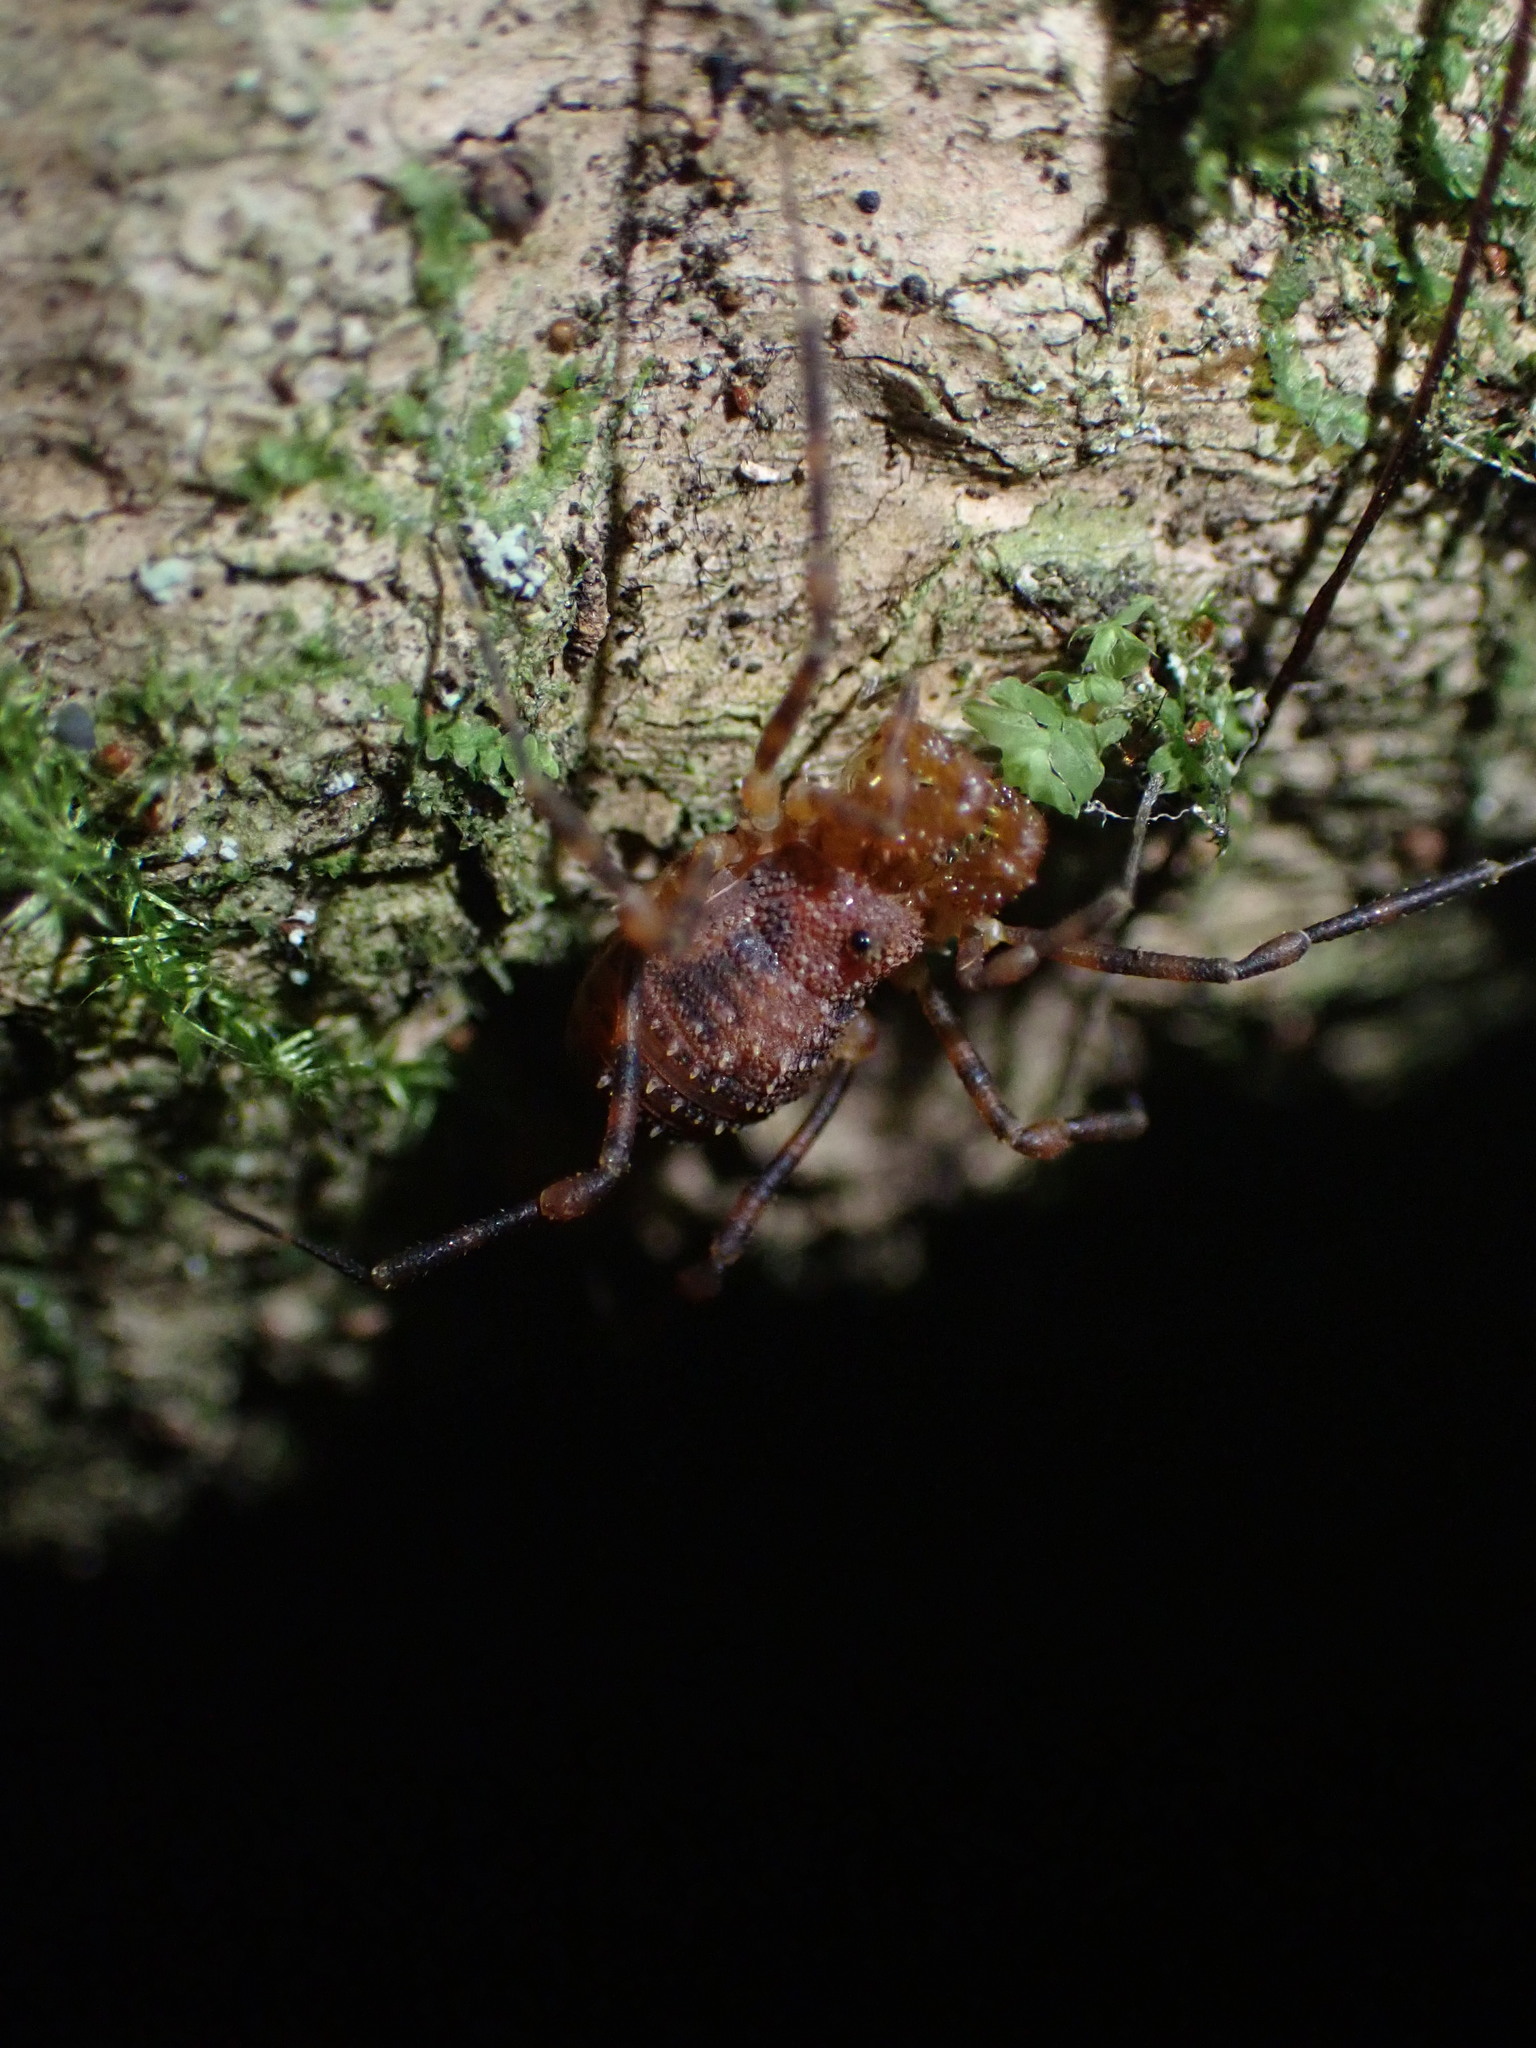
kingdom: Animalia
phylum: Arthropoda
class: Arachnida
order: Opiliones
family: Triaenonychidae
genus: Prasma
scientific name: Prasma tuberculata
